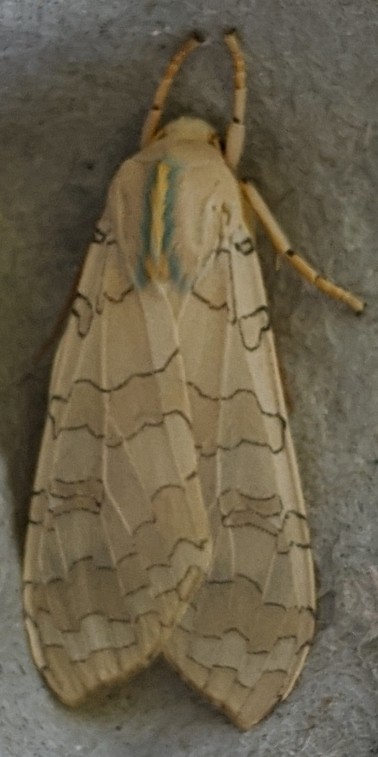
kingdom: Animalia
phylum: Arthropoda
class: Insecta
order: Lepidoptera
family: Erebidae
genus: Halysidota
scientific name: Halysidota tessellaris
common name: Banded tussock moth
